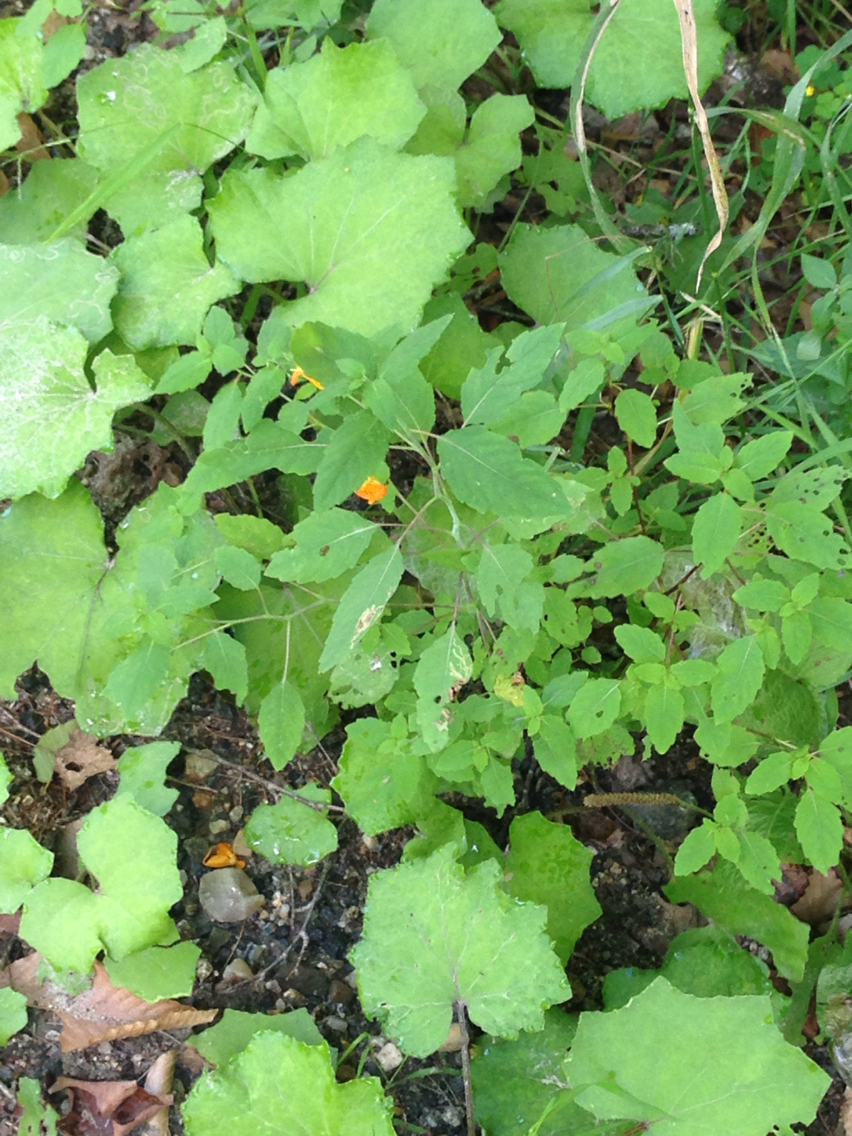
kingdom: Plantae
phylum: Tracheophyta
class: Magnoliopsida
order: Ericales
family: Balsaminaceae
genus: Impatiens
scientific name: Impatiens capensis
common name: Orange balsam
